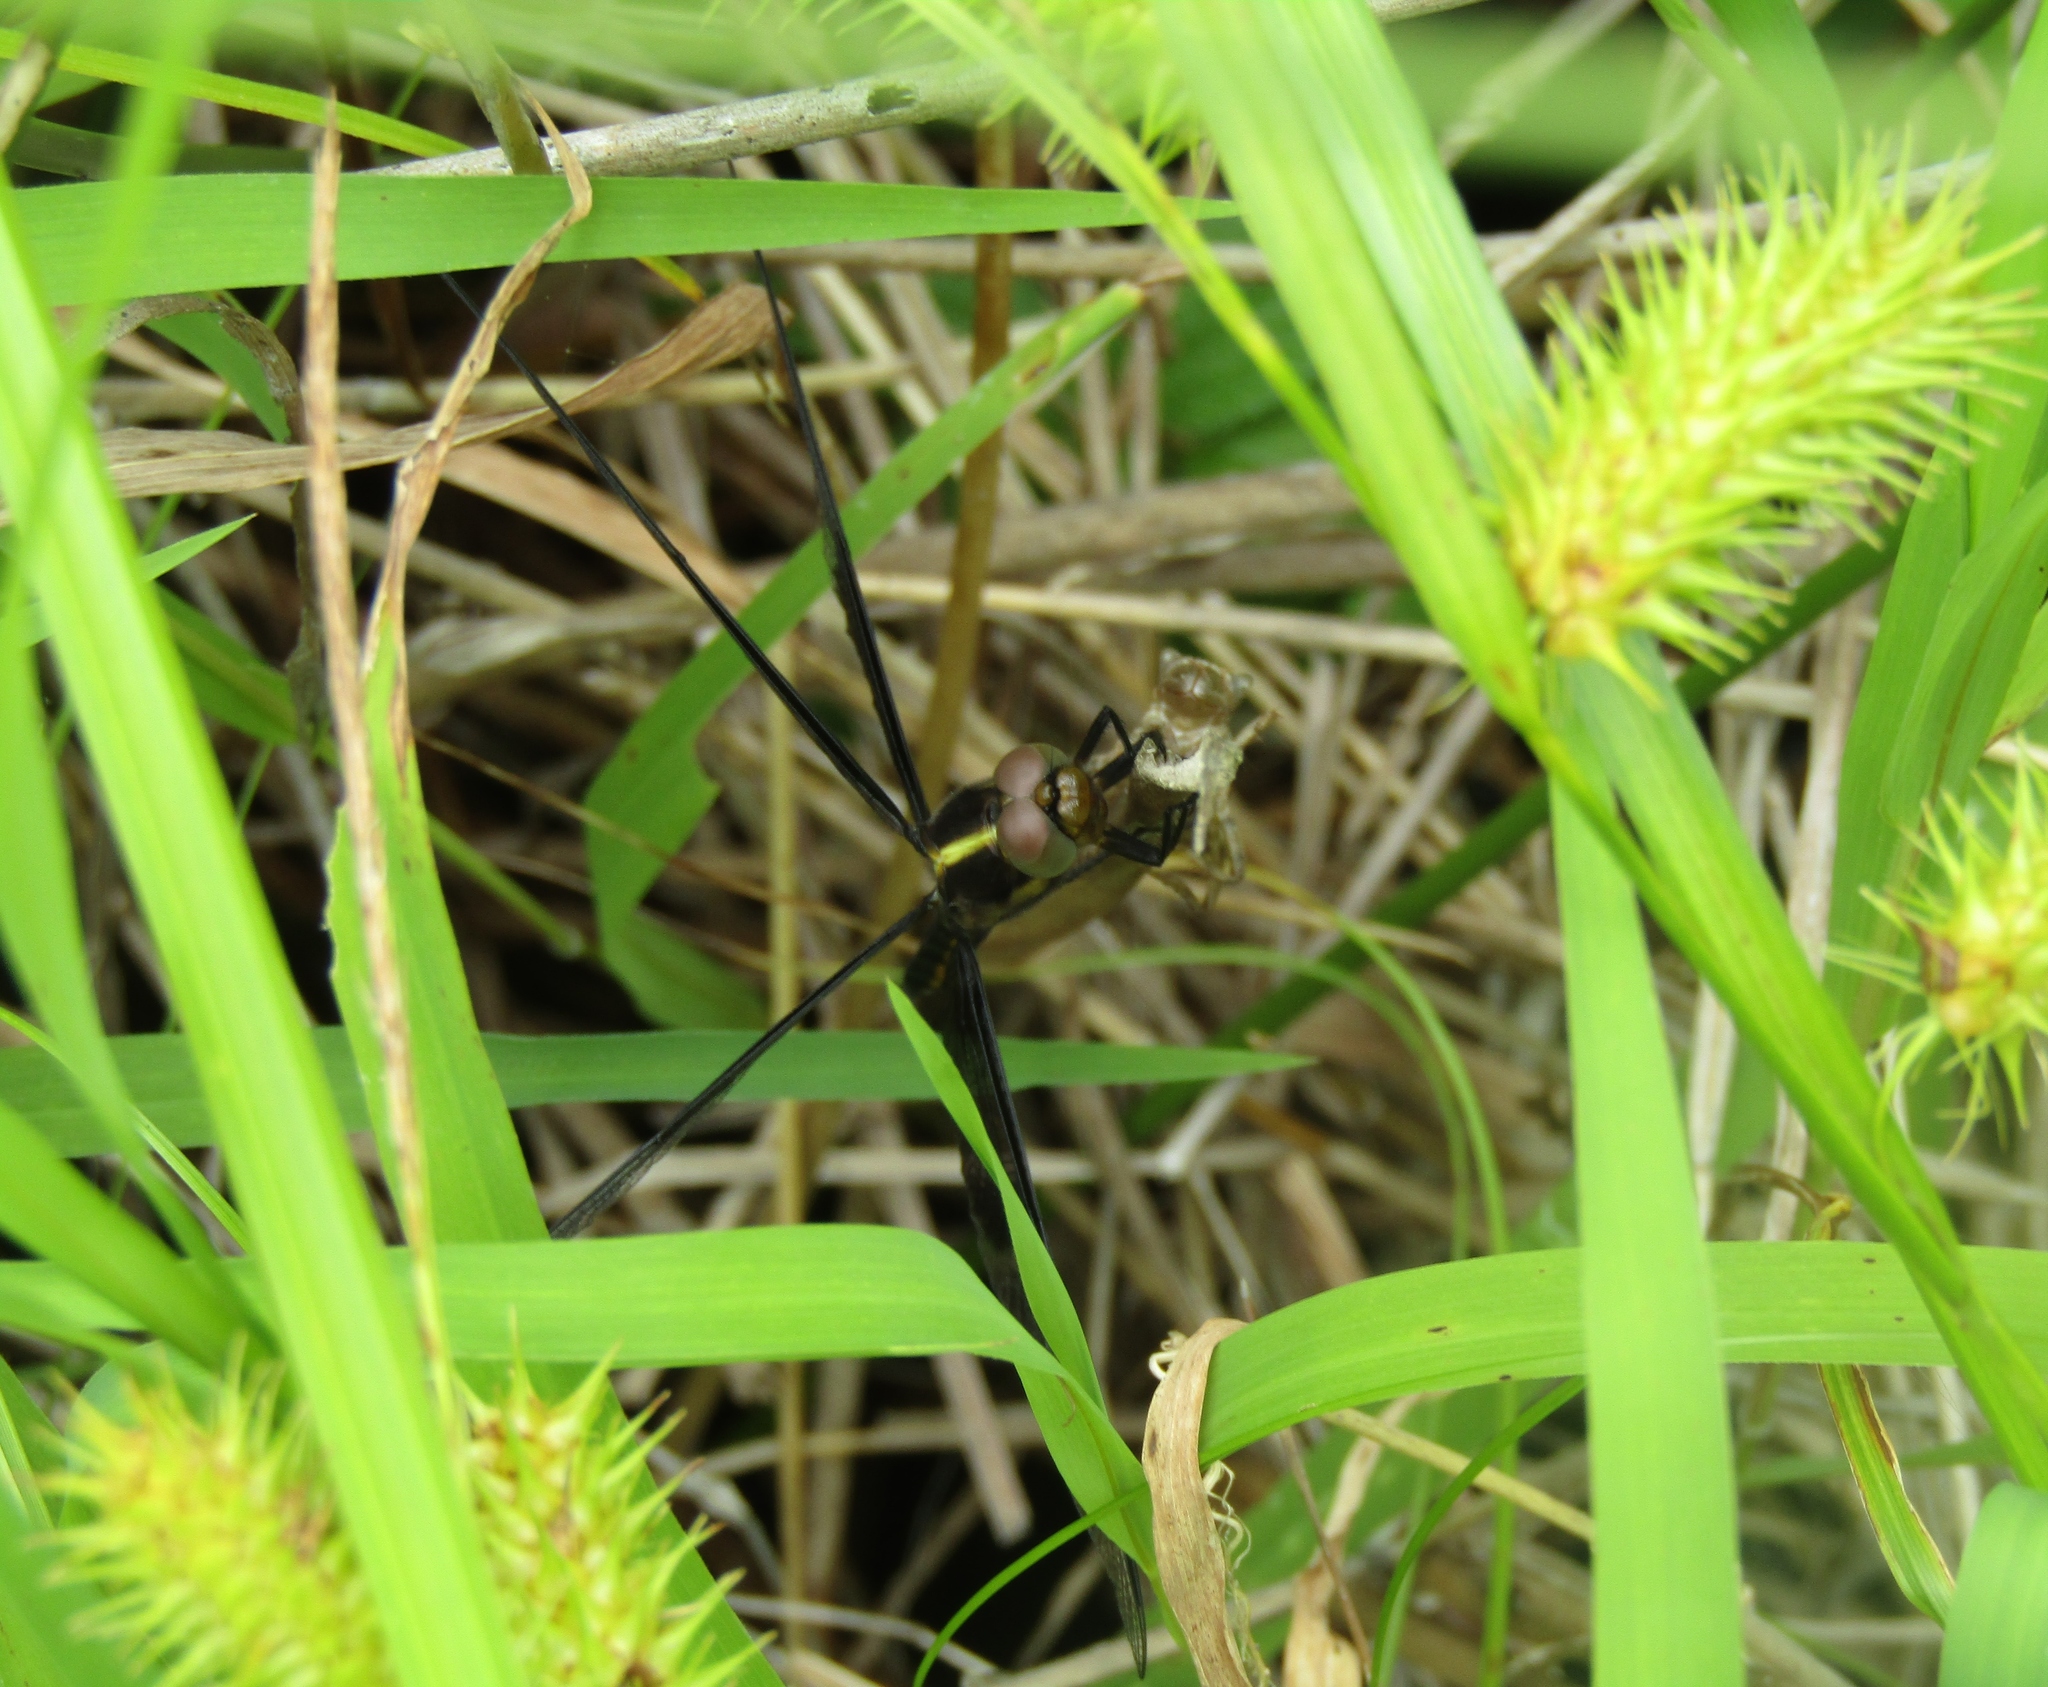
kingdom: Animalia
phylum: Arthropoda
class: Insecta
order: Odonata
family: Libellulidae
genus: Libellula
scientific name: Libellula luctuosa
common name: Widow skimmer
